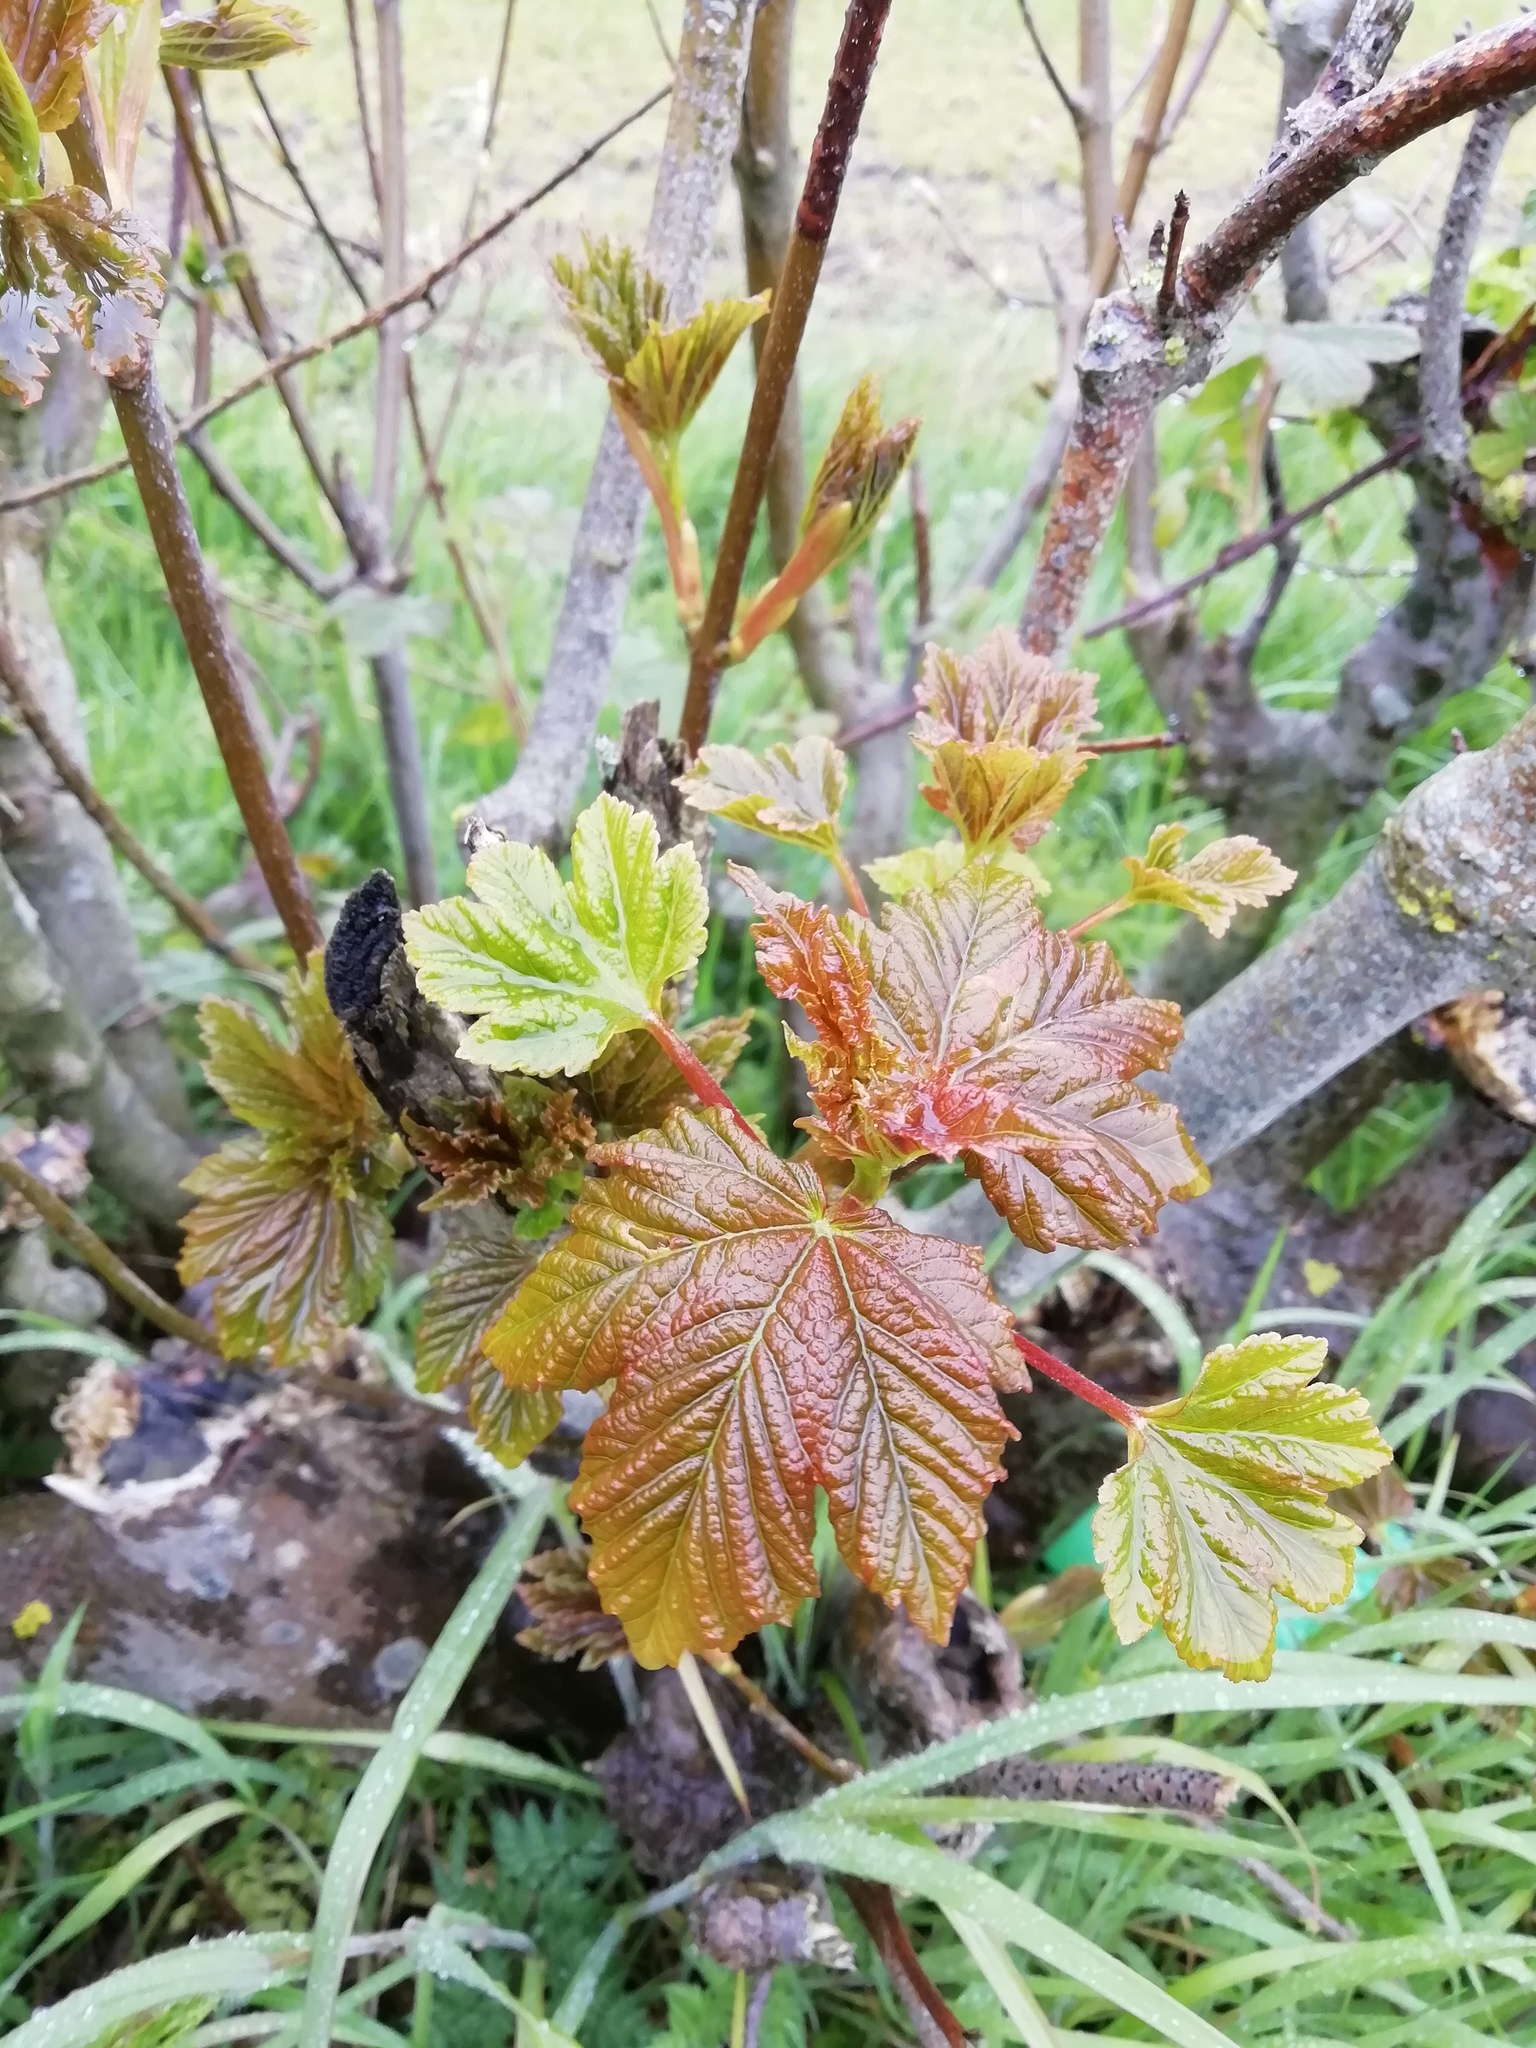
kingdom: Plantae
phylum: Tracheophyta
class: Magnoliopsida
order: Sapindales
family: Sapindaceae
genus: Acer
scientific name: Acer pseudoplatanus
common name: Sycamore
